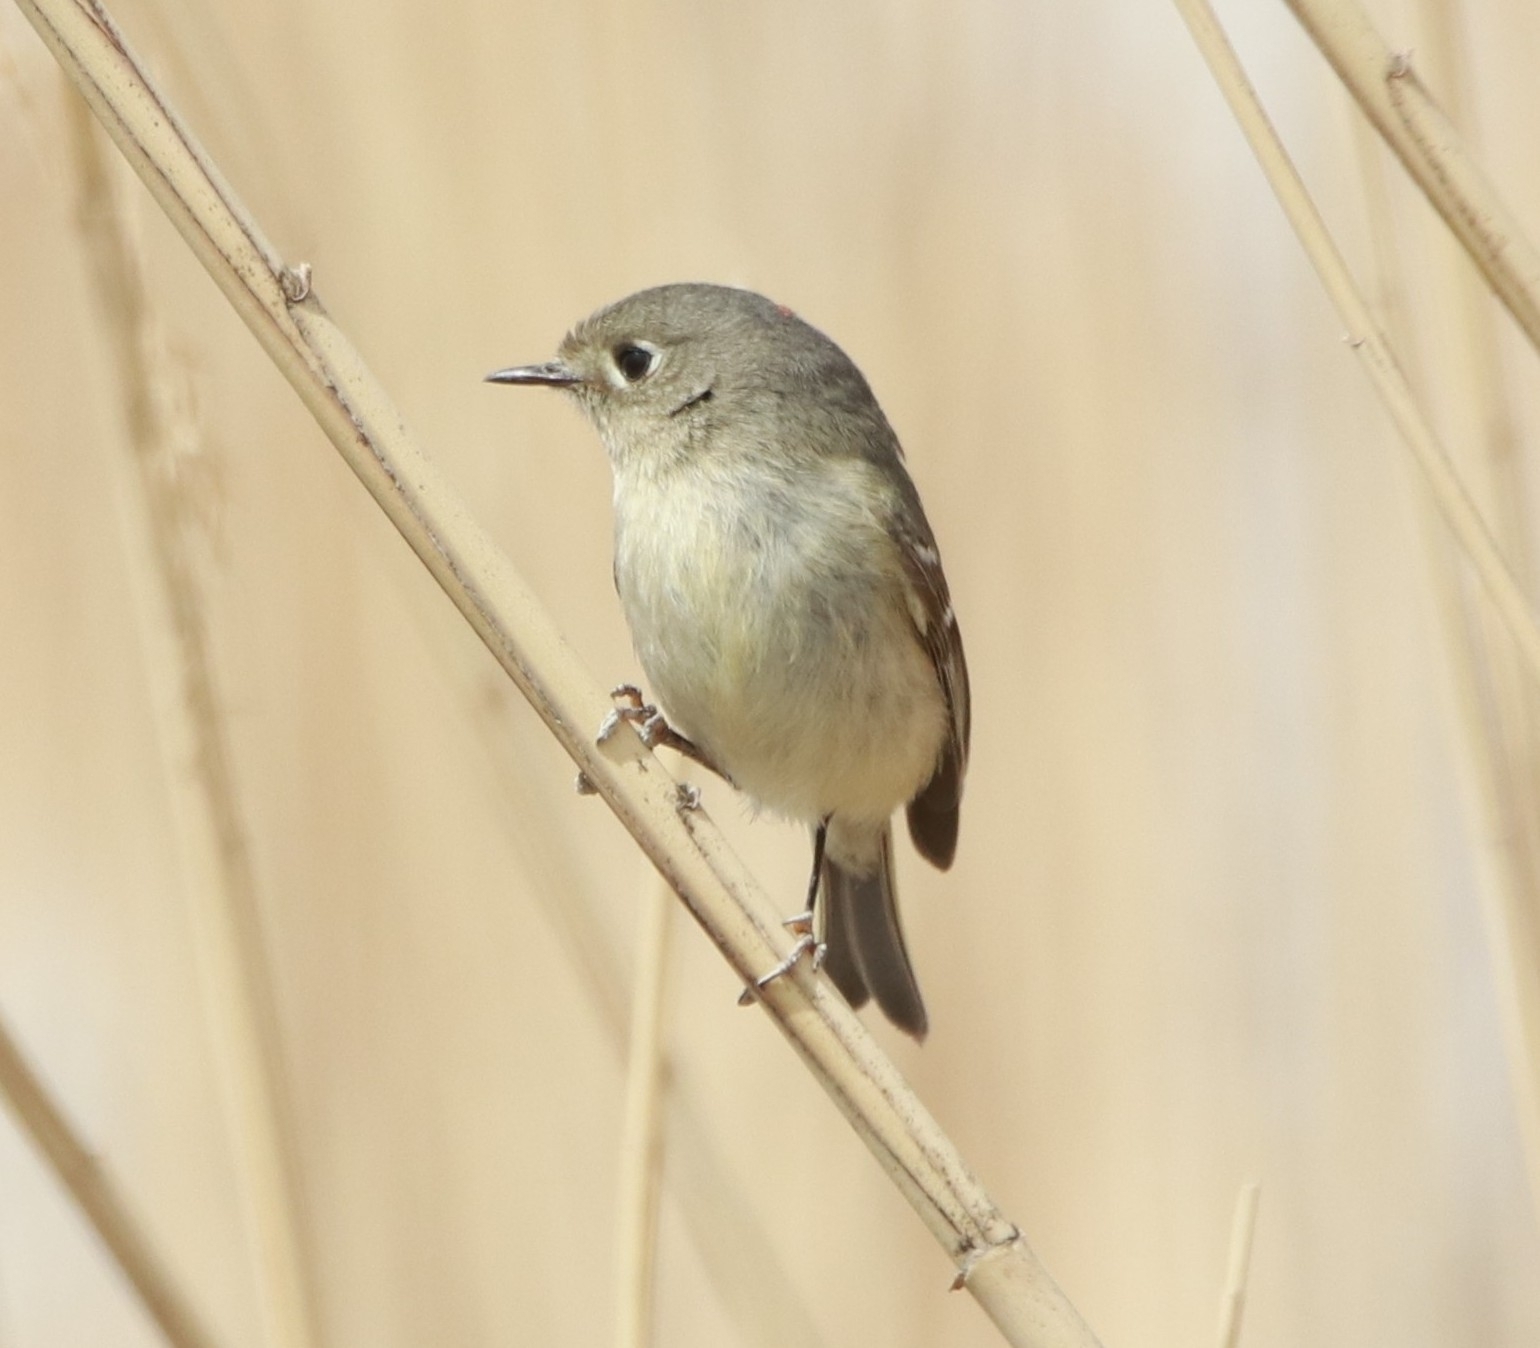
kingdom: Animalia
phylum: Chordata
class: Aves
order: Passeriformes
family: Regulidae
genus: Regulus
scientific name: Regulus calendula
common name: Ruby-crowned kinglet
